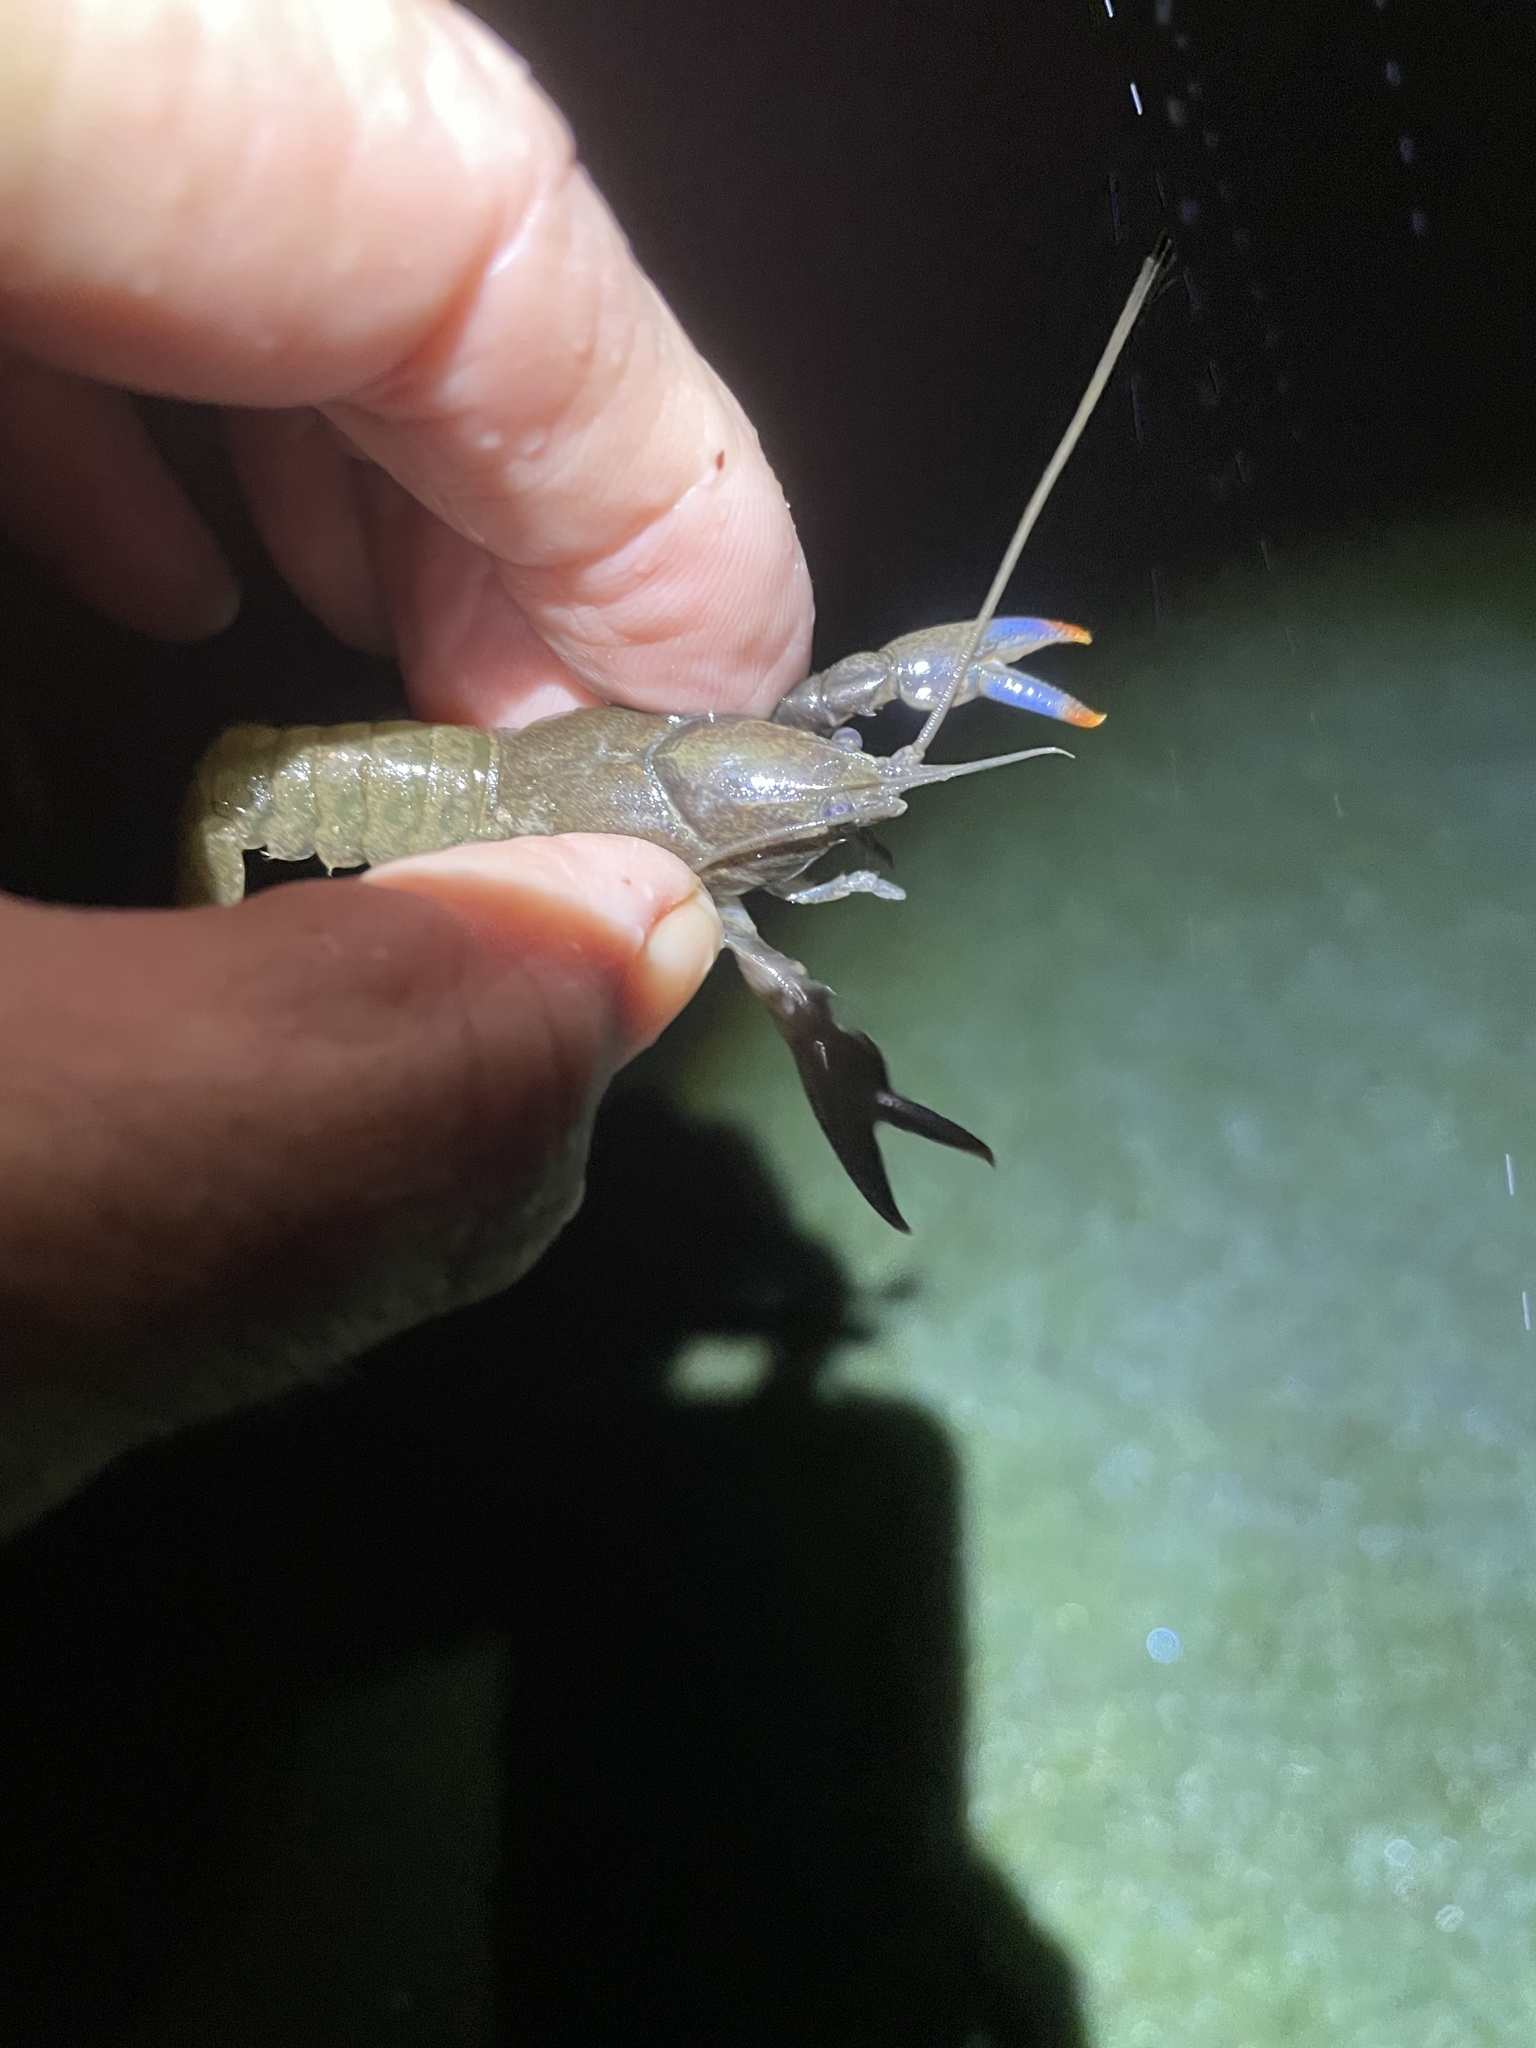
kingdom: Animalia
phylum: Arthropoda
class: Malacostraca
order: Decapoda
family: Parastacidae
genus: Cherax
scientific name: Cherax depressus
